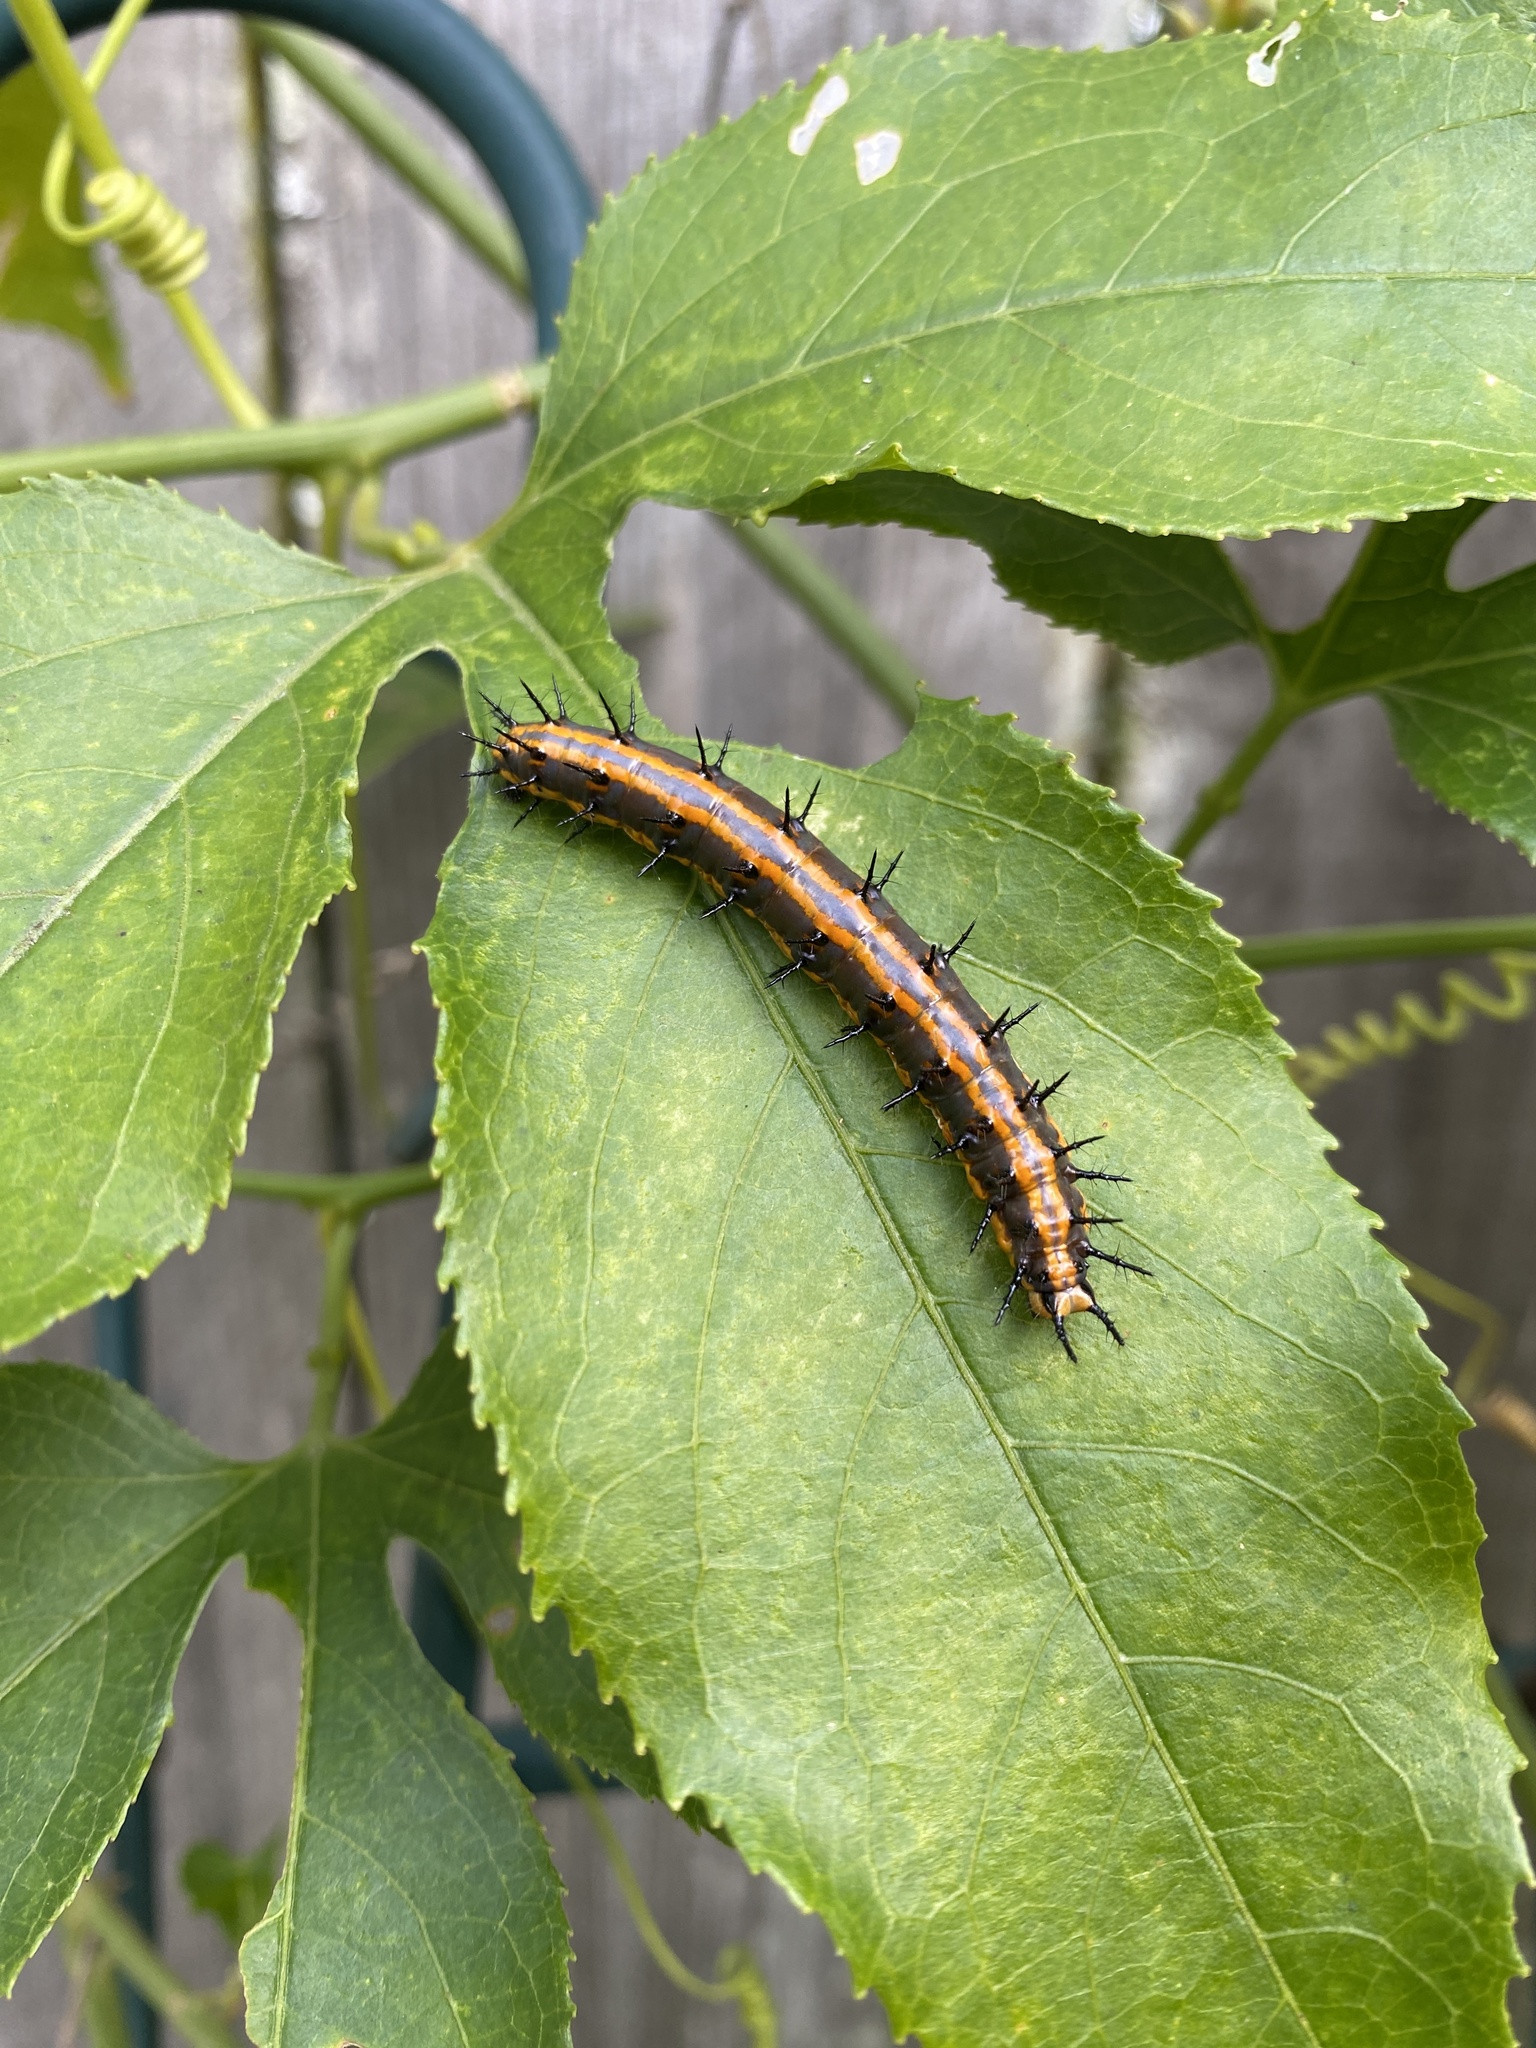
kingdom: Animalia
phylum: Arthropoda
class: Insecta
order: Lepidoptera
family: Nymphalidae
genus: Dione
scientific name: Dione vanillae
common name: Gulf fritillary
